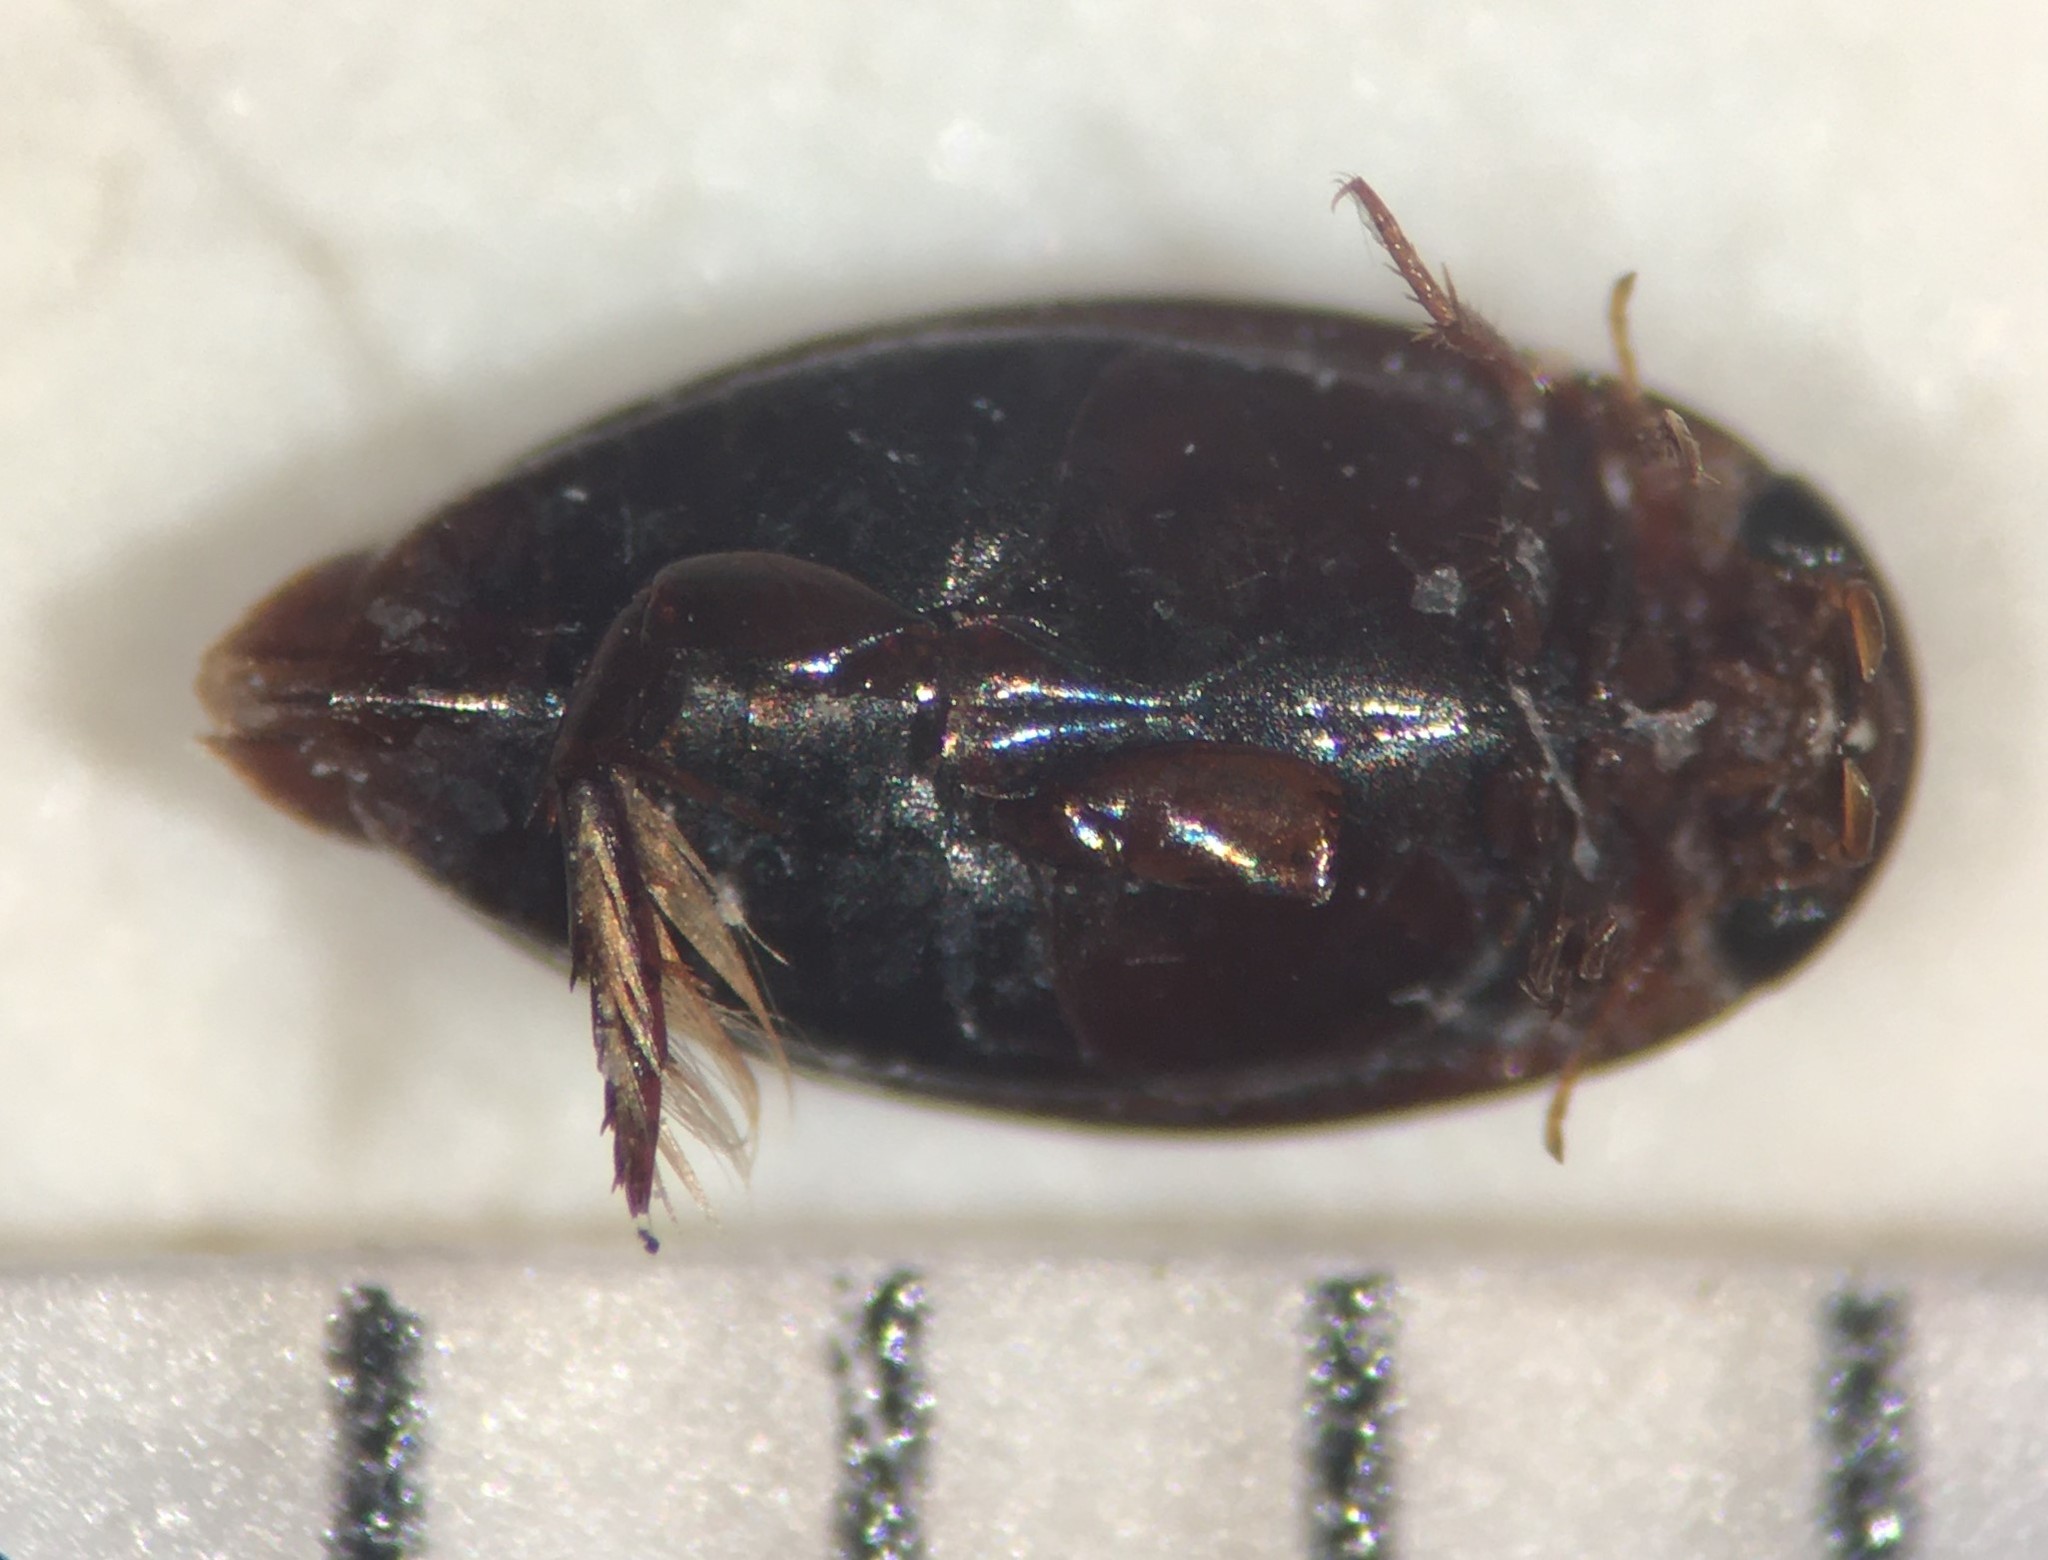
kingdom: Animalia
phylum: Arthropoda
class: Insecta
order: Coleoptera
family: Dytiscidae
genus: Laccophilus
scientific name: Laccophilus gentilis
